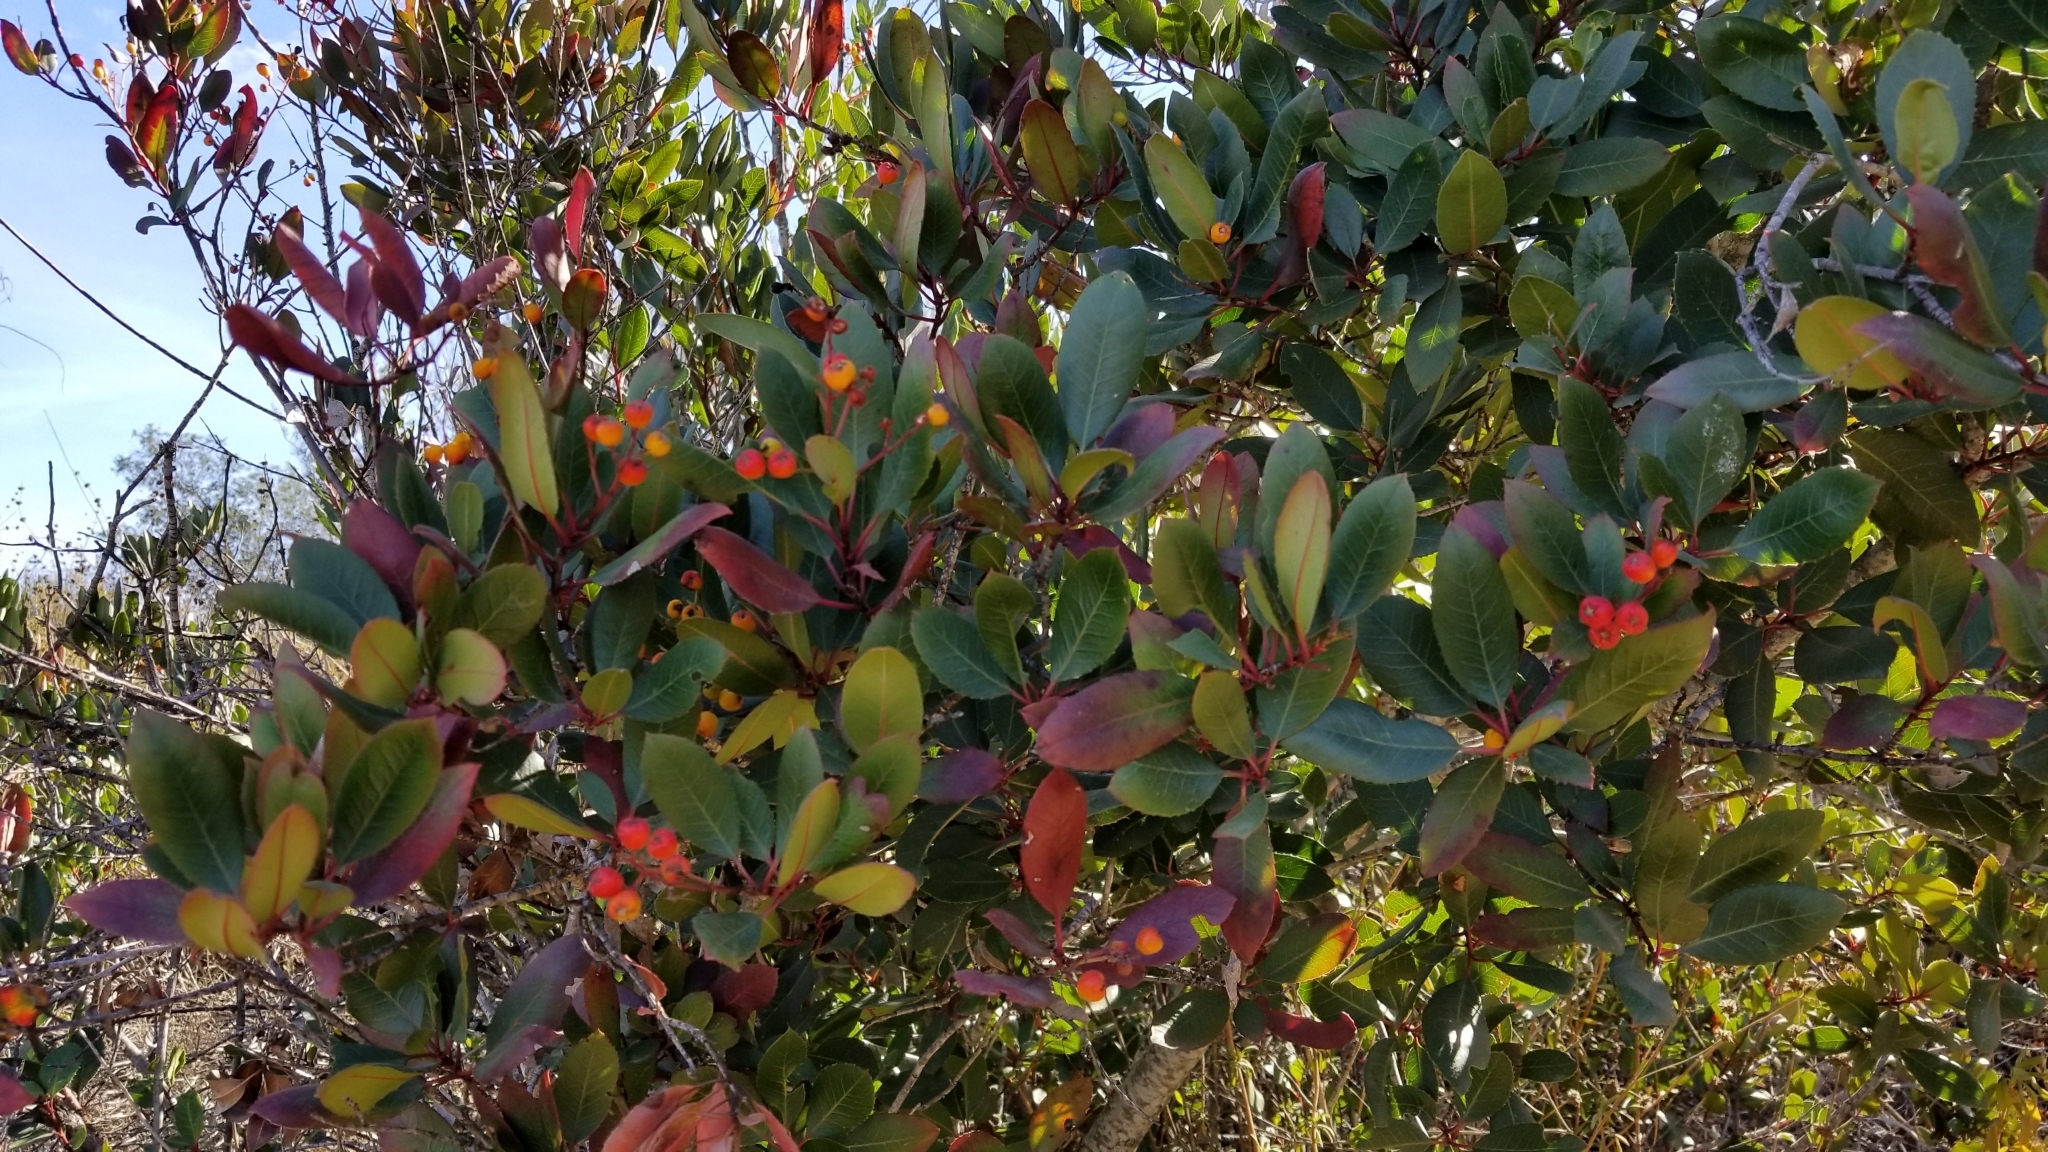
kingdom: Plantae
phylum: Tracheophyta
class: Magnoliopsida
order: Rosales
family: Rosaceae
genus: Heteromeles
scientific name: Heteromeles arbutifolia
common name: California-holly
